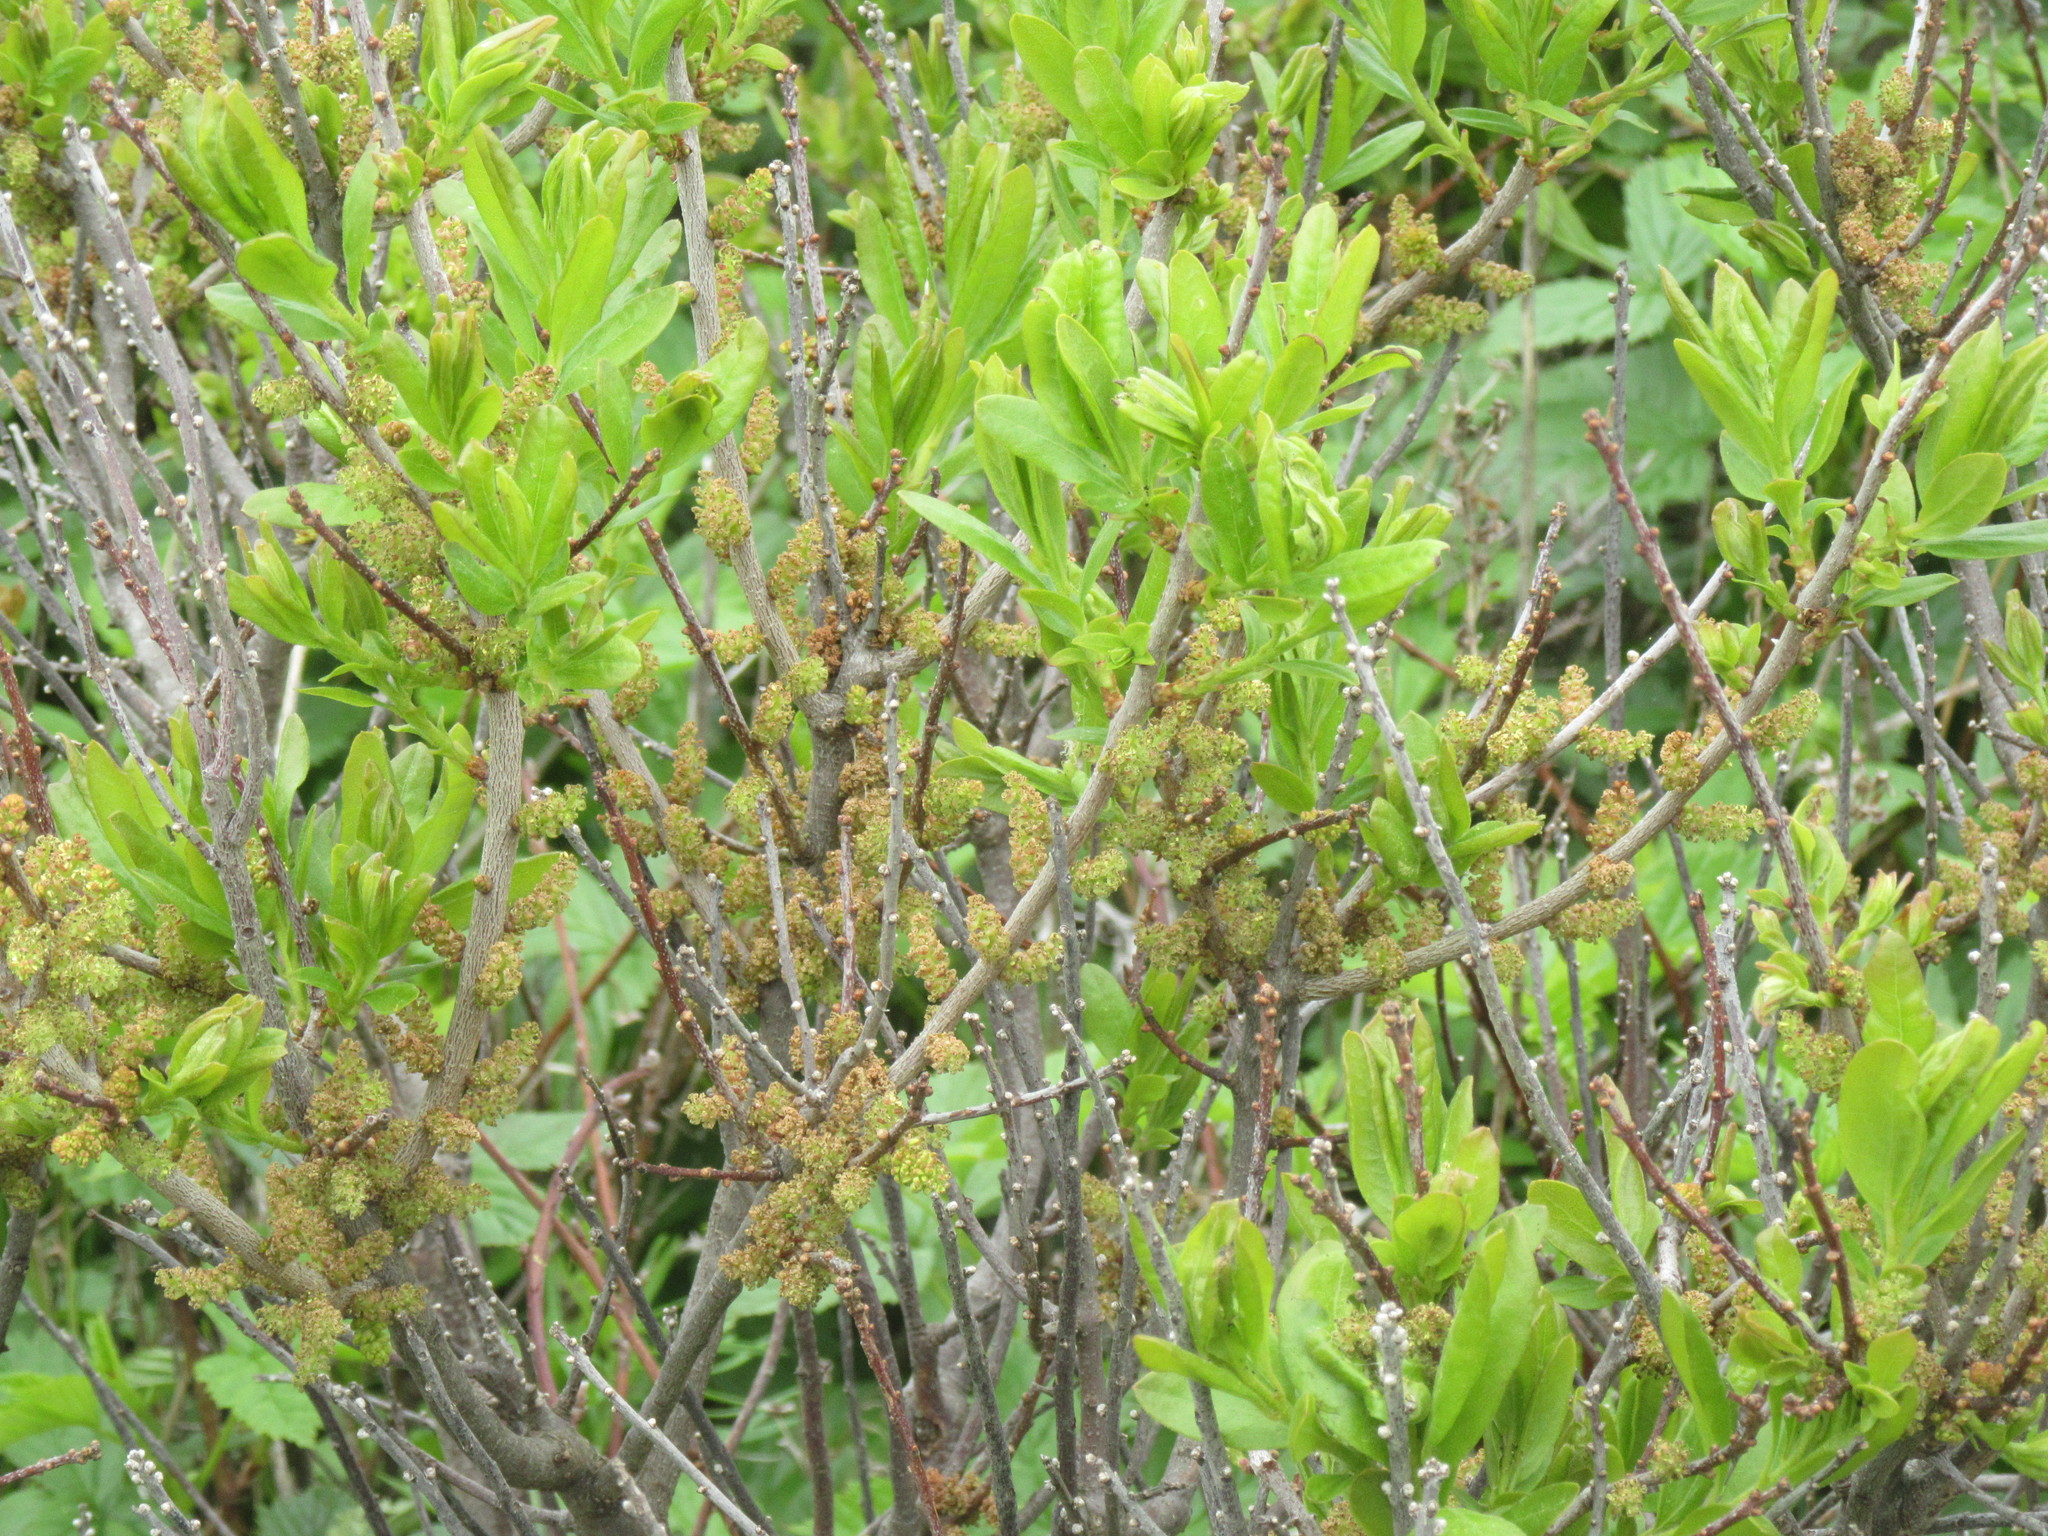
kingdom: Plantae
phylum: Tracheophyta
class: Magnoliopsida
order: Fagales
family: Myricaceae
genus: Morella
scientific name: Morella pensylvanica
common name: Northern bayberry
